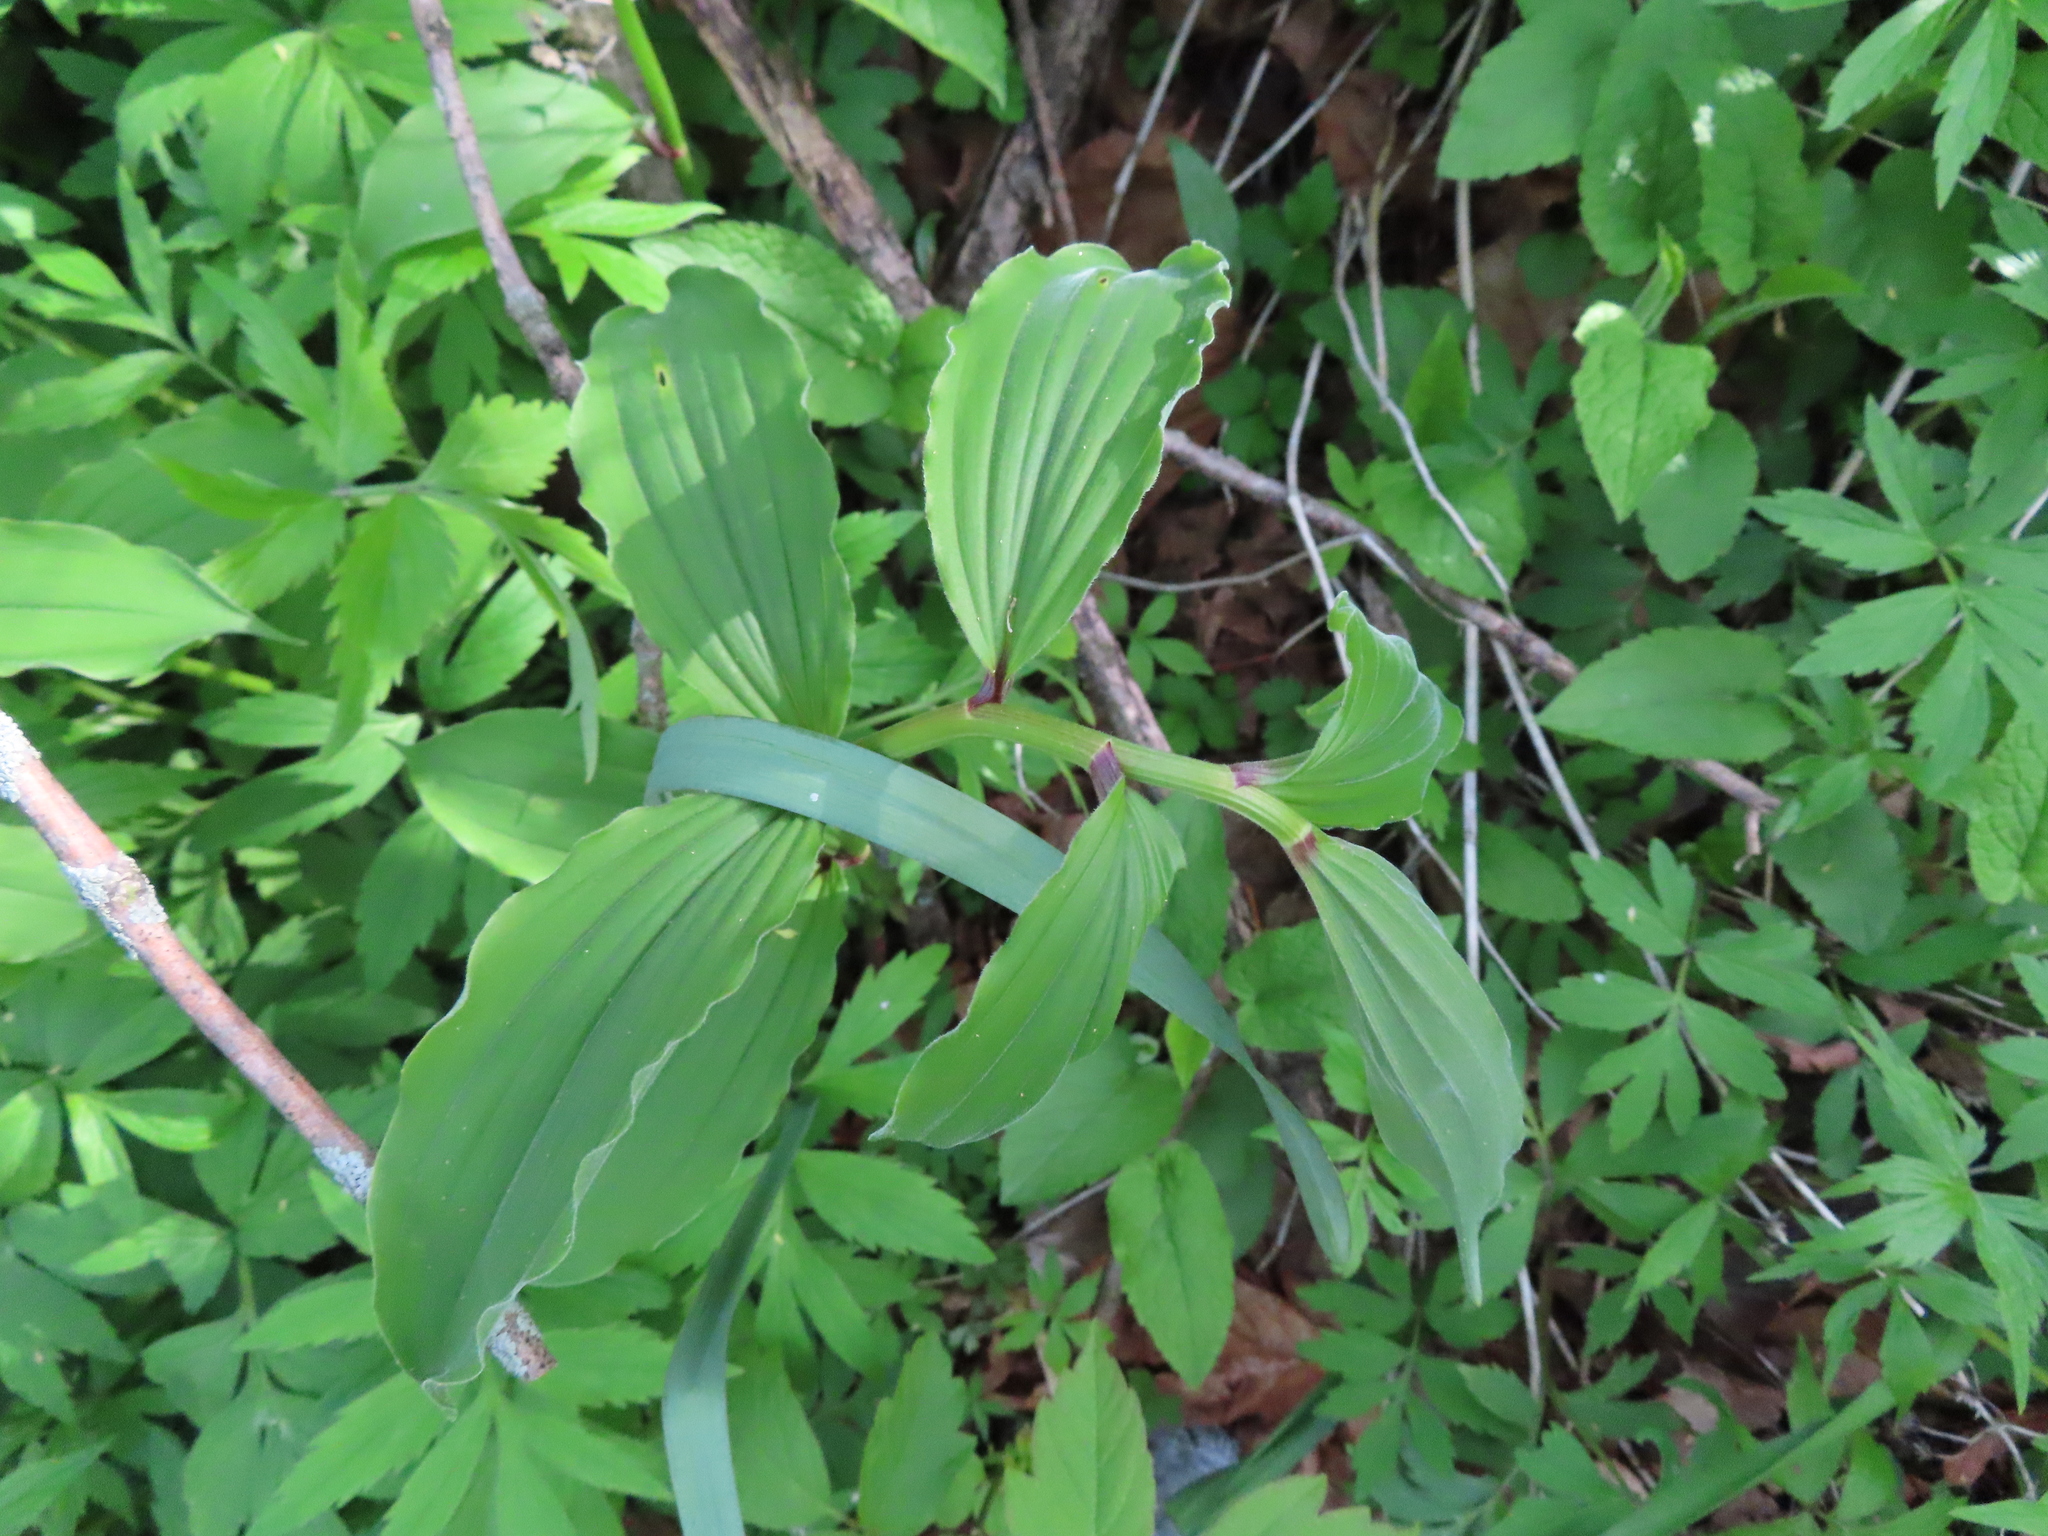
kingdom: Plantae
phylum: Tracheophyta
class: Liliopsida
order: Asparagales
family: Asparagaceae
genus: Maianthemum
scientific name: Maianthemum racemosum
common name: False spikenard
